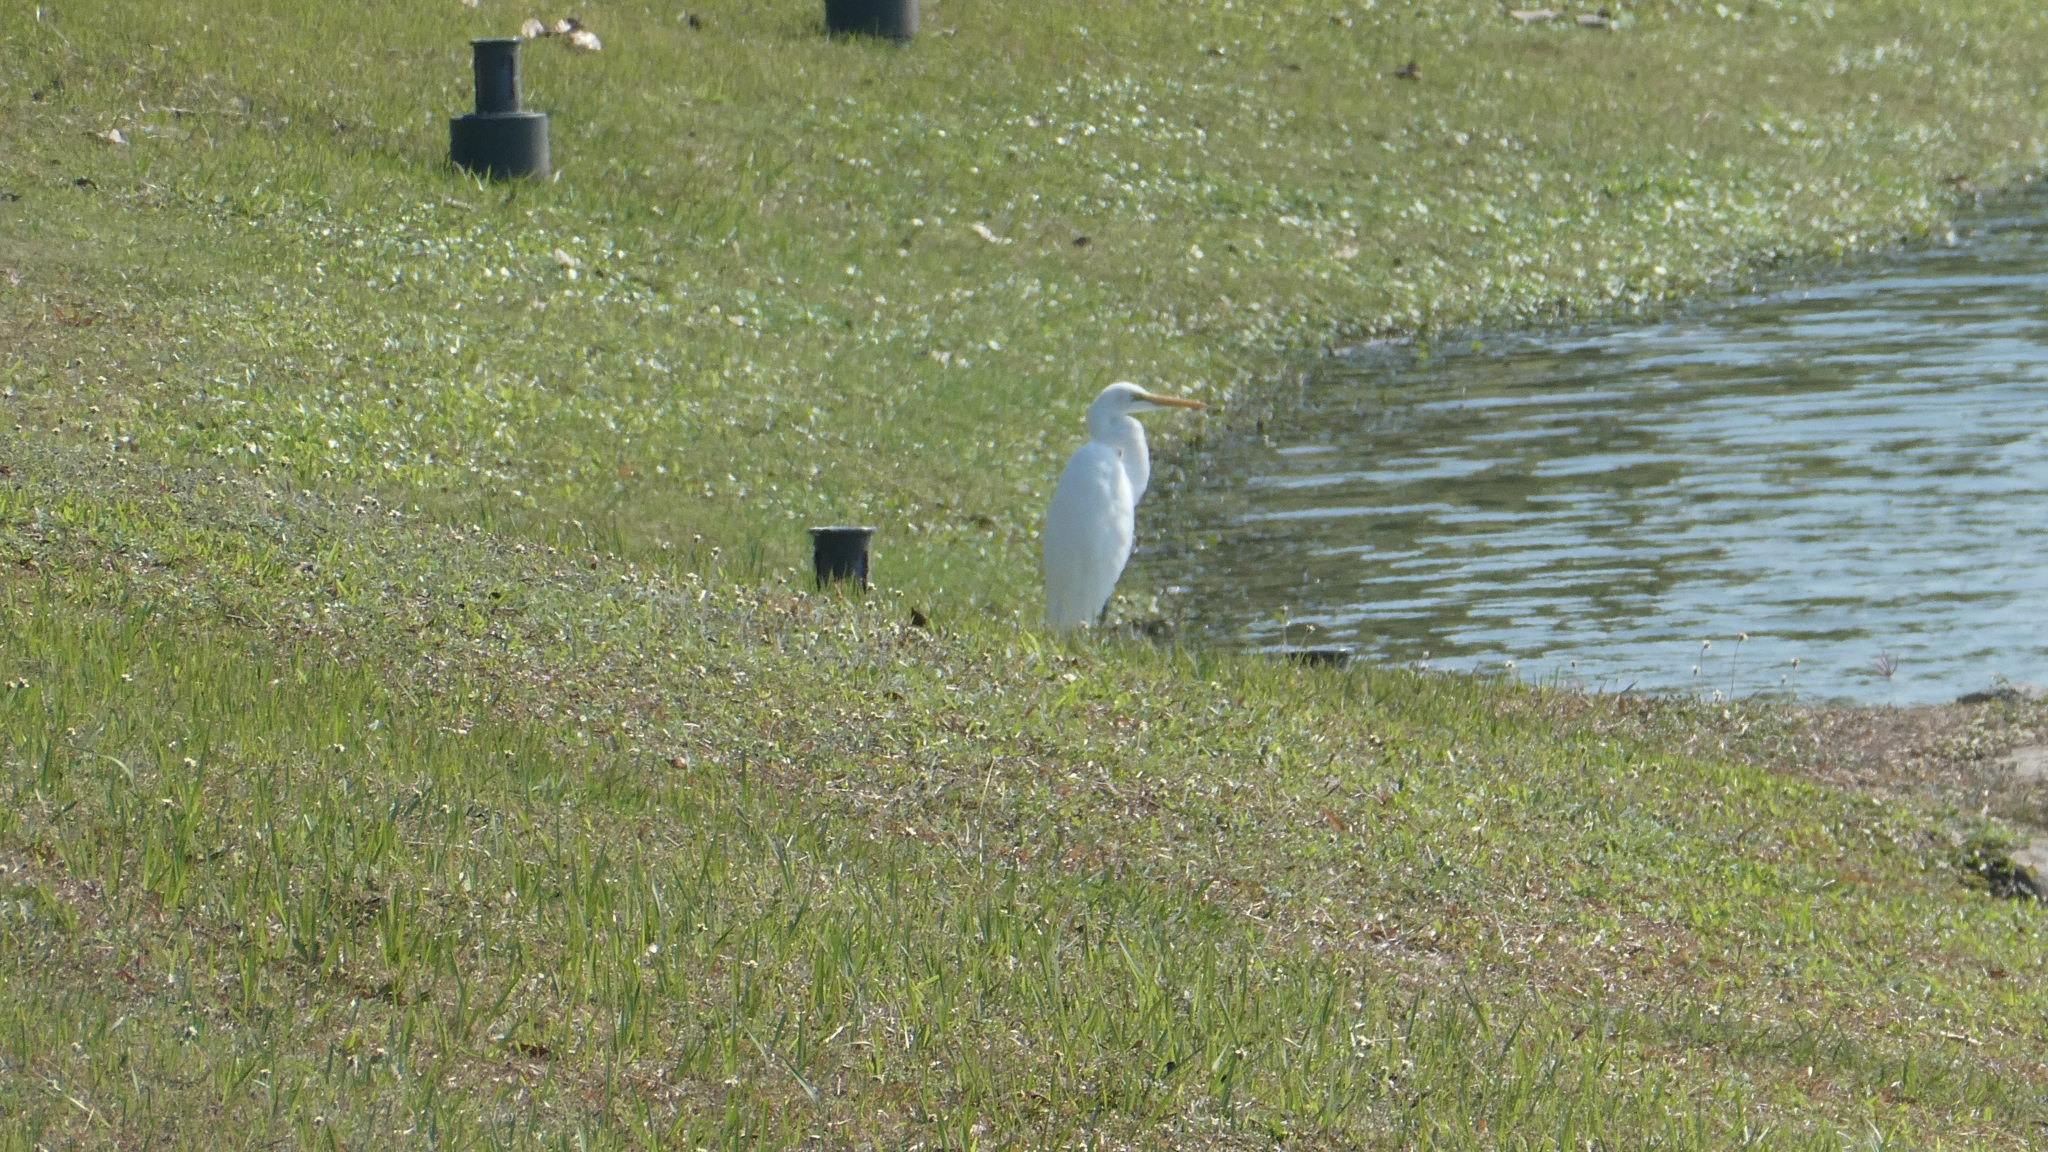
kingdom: Animalia
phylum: Chordata
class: Aves
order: Pelecaniformes
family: Ardeidae
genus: Ardea
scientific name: Ardea alba
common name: Great egret
